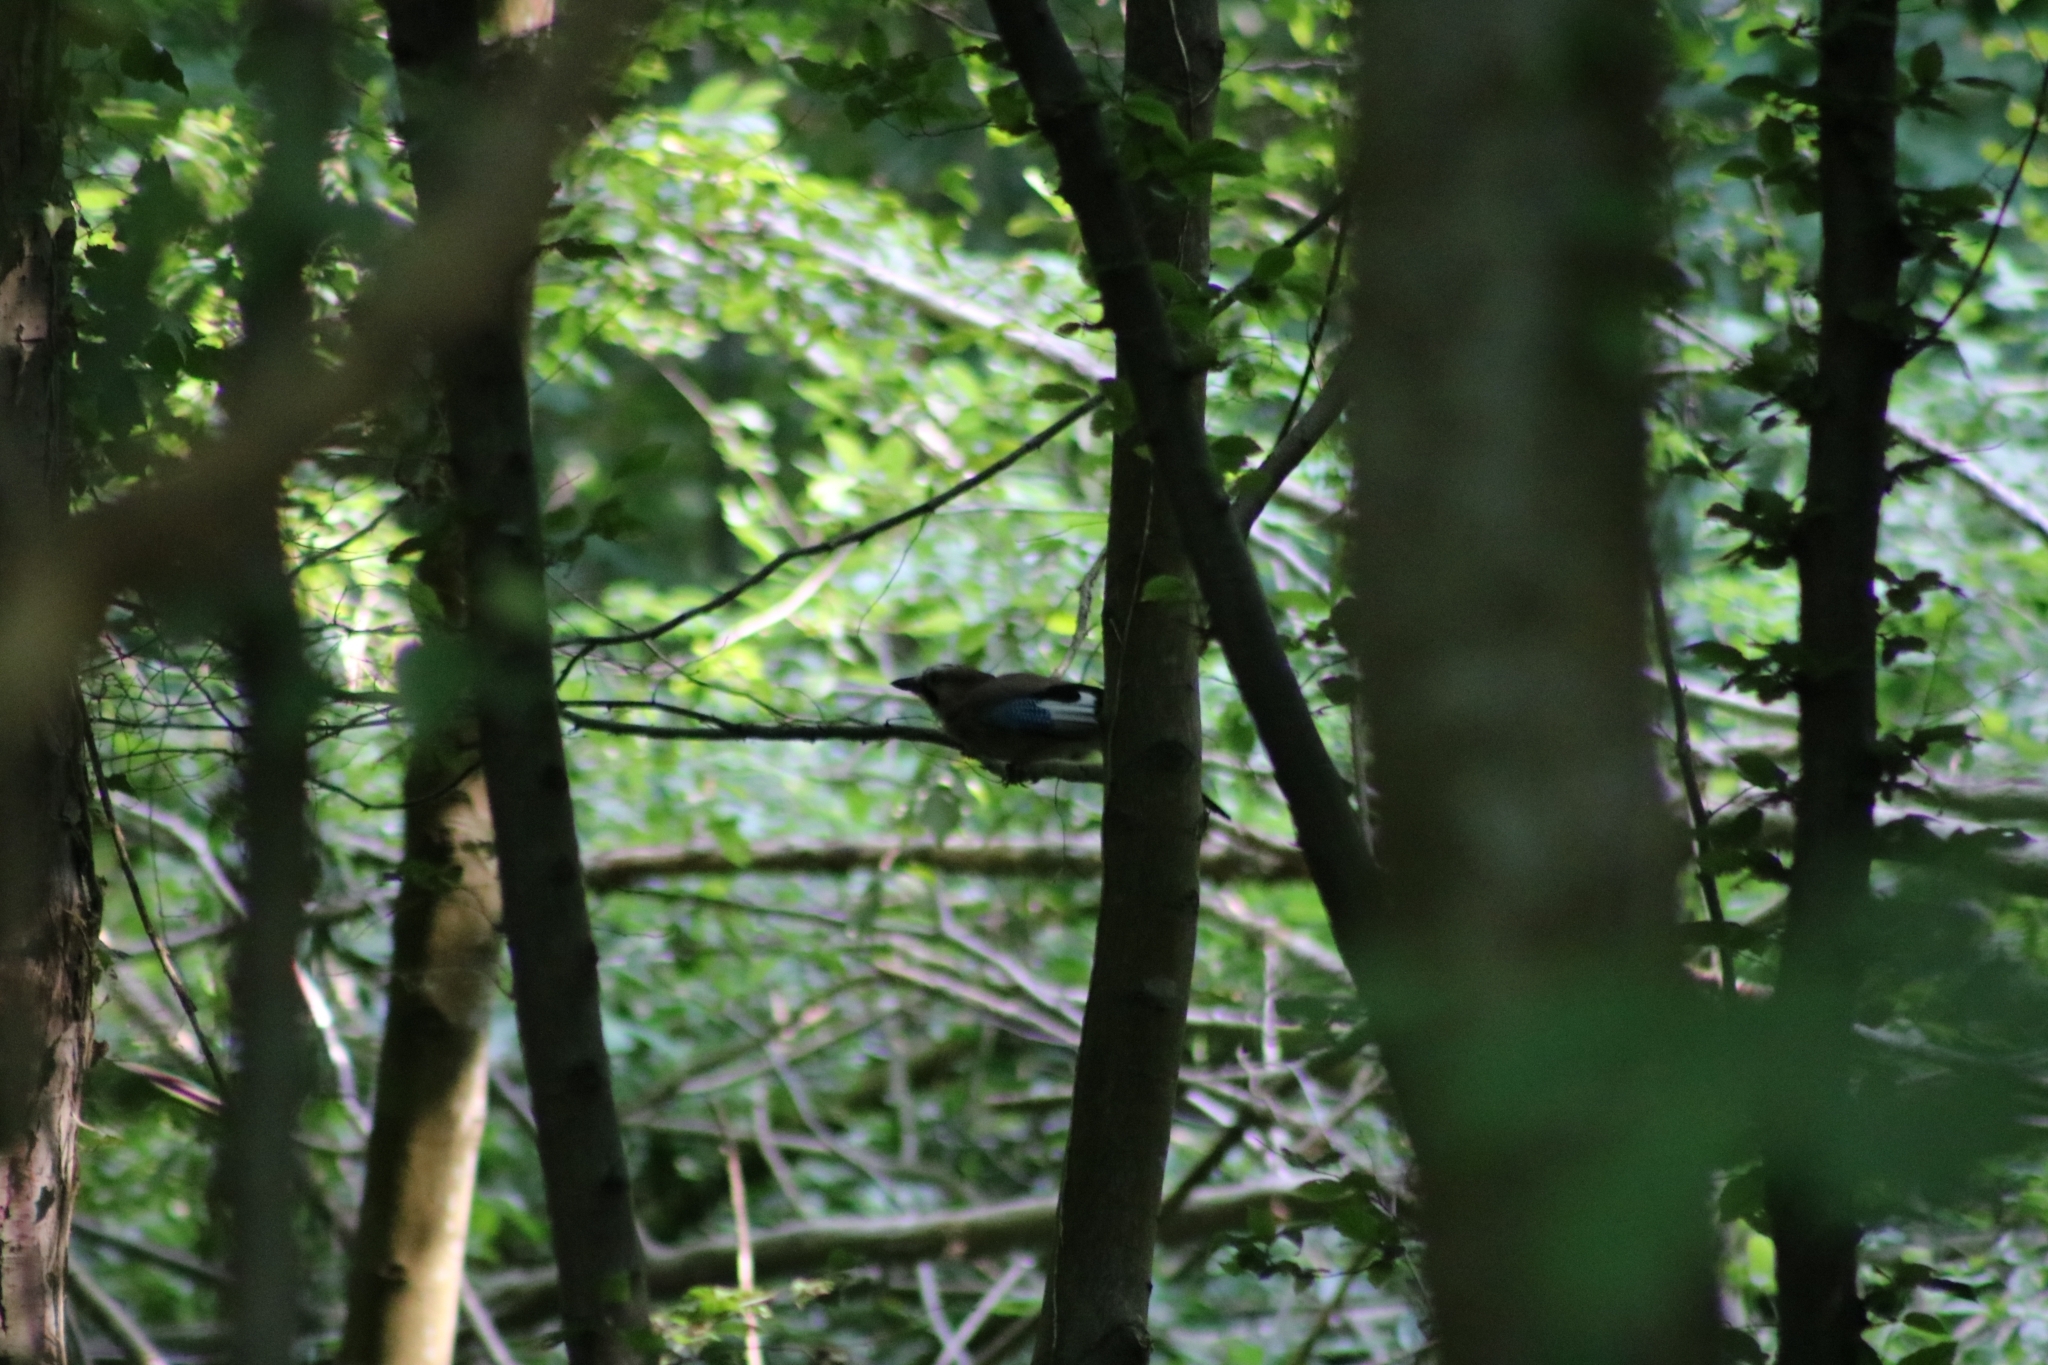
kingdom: Animalia
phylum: Chordata
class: Aves
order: Passeriformes
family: Corvidae
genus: Garrulus
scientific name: Garrulus glandarius
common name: Eurasian jay
